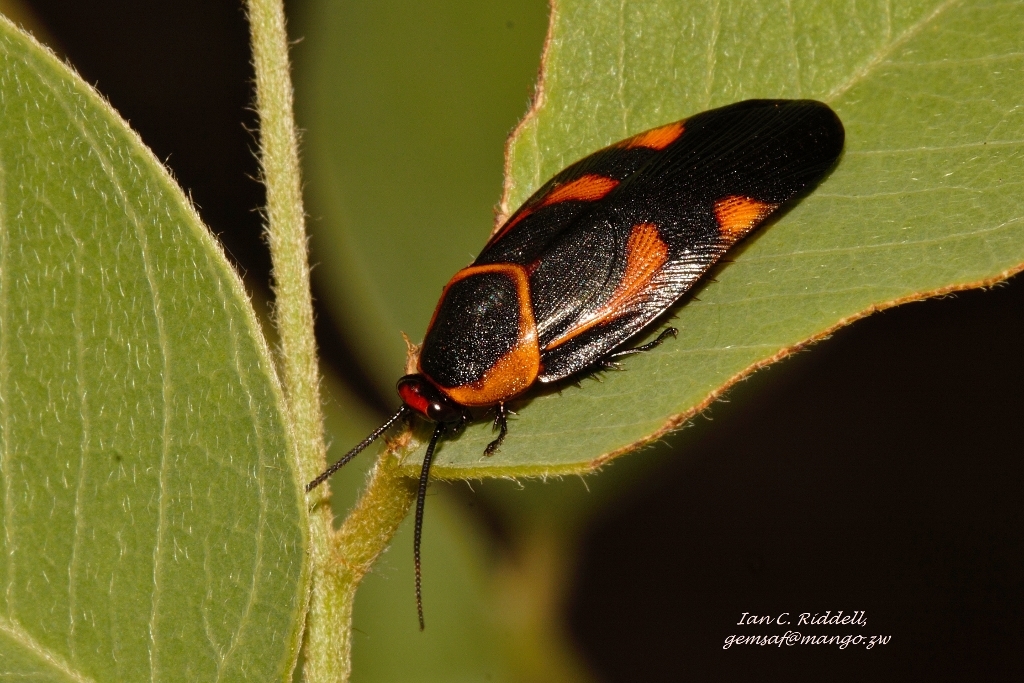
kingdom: Animalia
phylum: Arthropoda
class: Insecta
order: Blattodea
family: Blaberidae
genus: Eustegasta
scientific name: Eustegasta poecila
